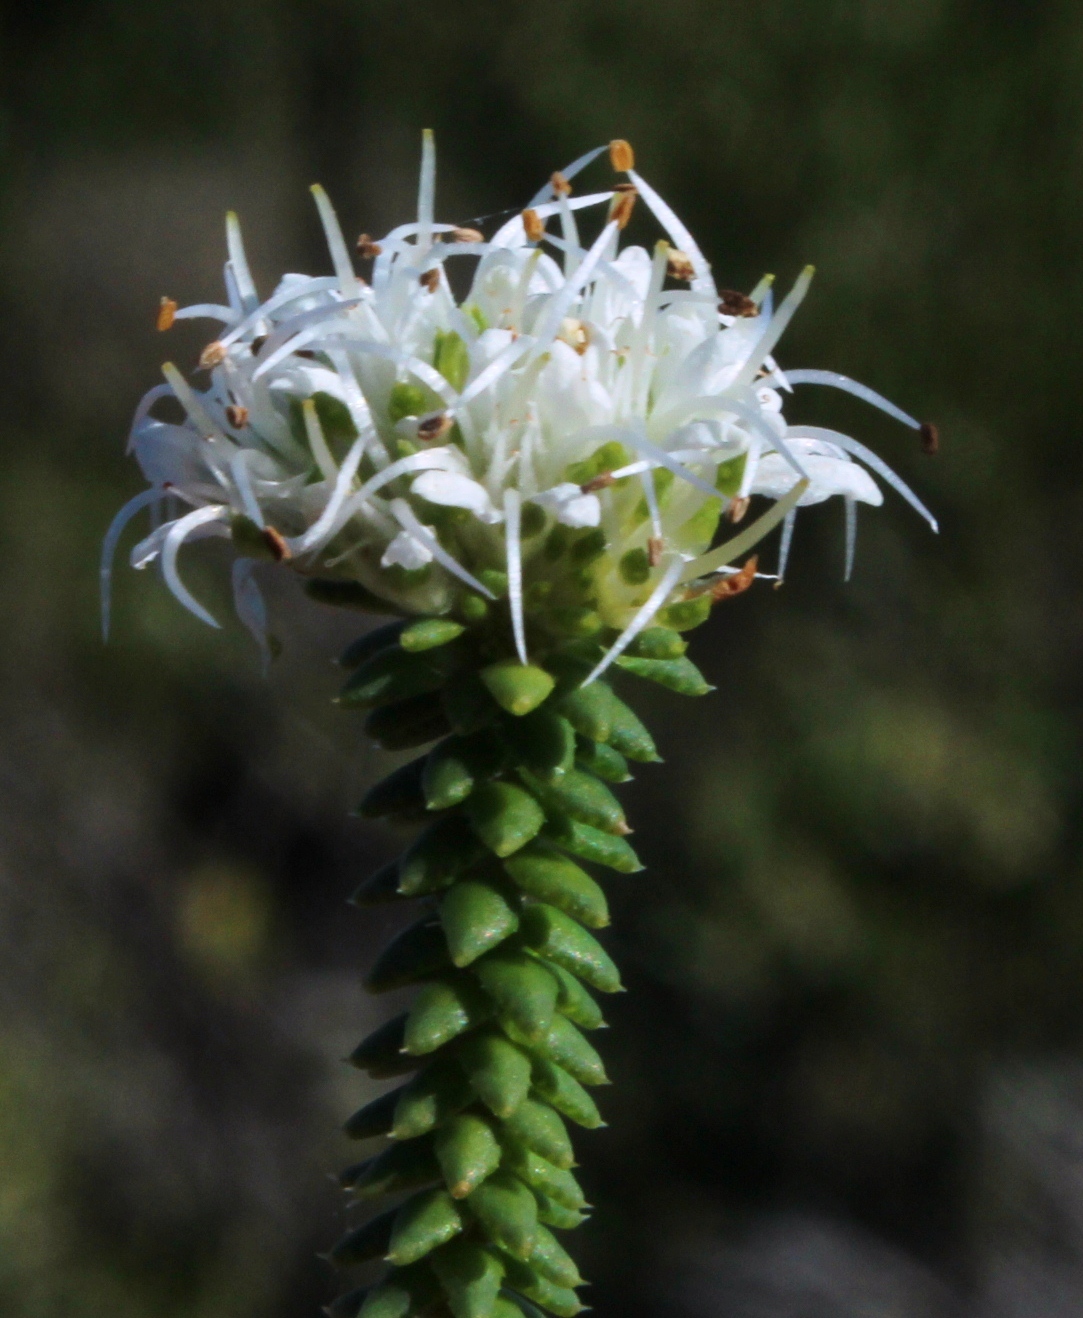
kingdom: Plantae
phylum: Tracheophyta
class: Magnoliopsida
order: Sapindales
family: Rutaceae
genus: Agathosma
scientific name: Agathosma apiculata
